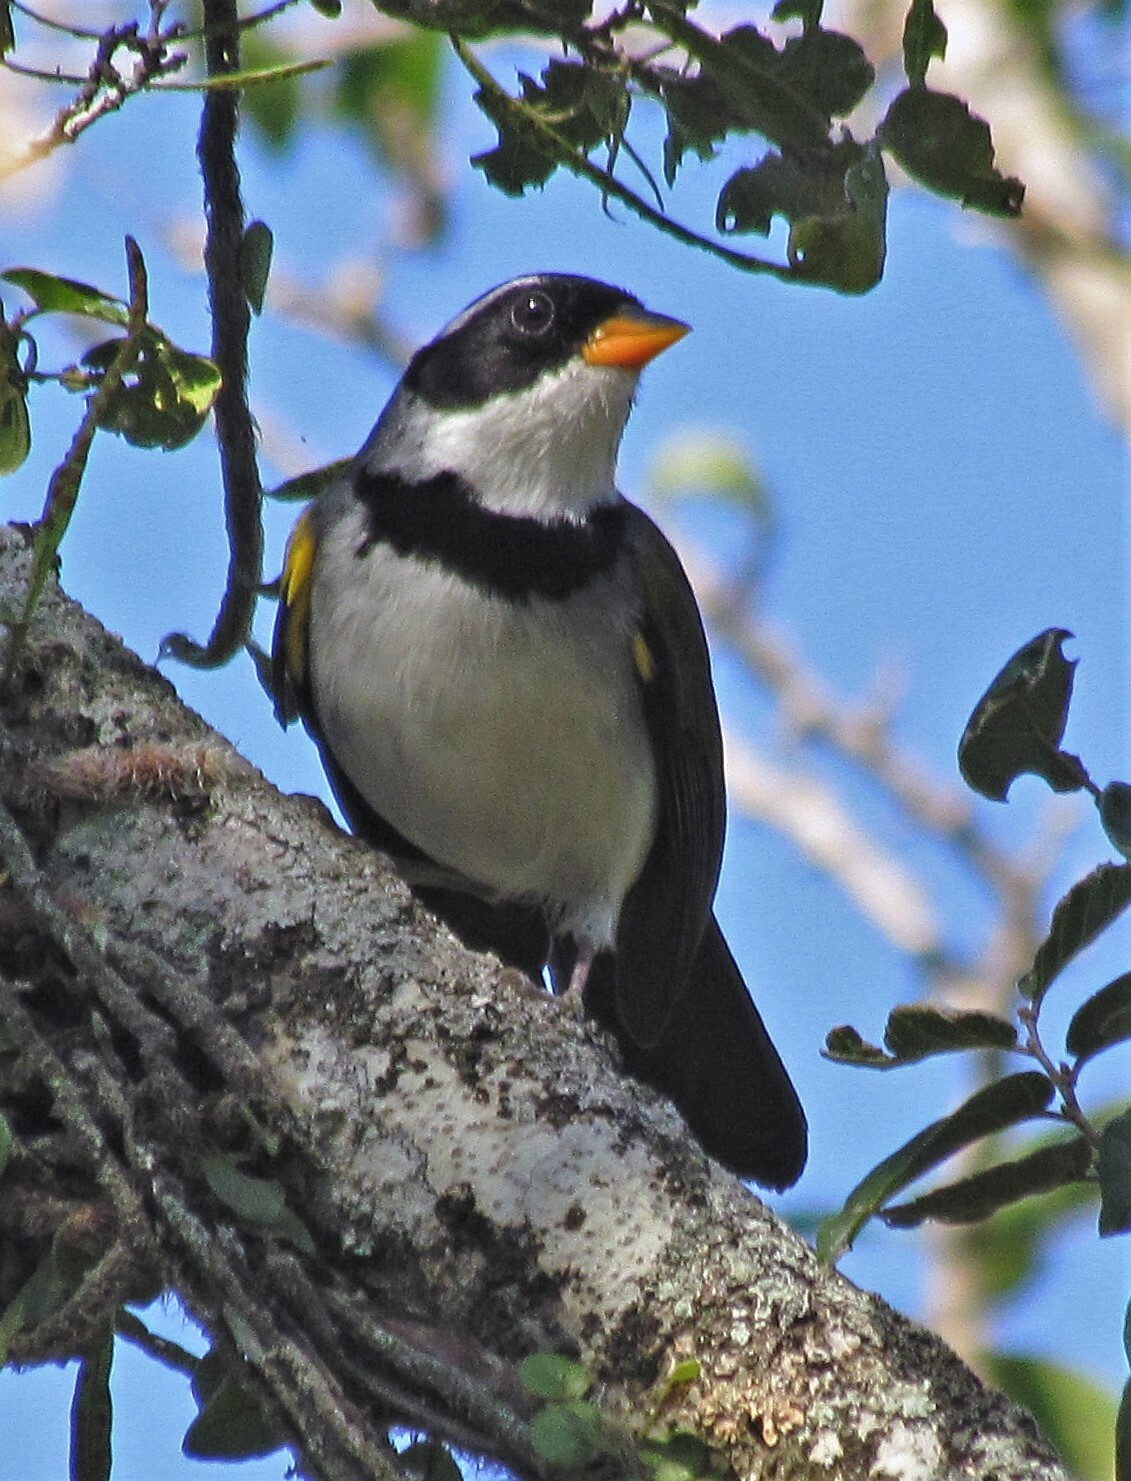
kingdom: Animalia
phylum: Chordata
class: Aves
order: Passeriformes
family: Passerellidae
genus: Arremon
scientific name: Arremon flavirostris
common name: Saffron-billed sparrow
